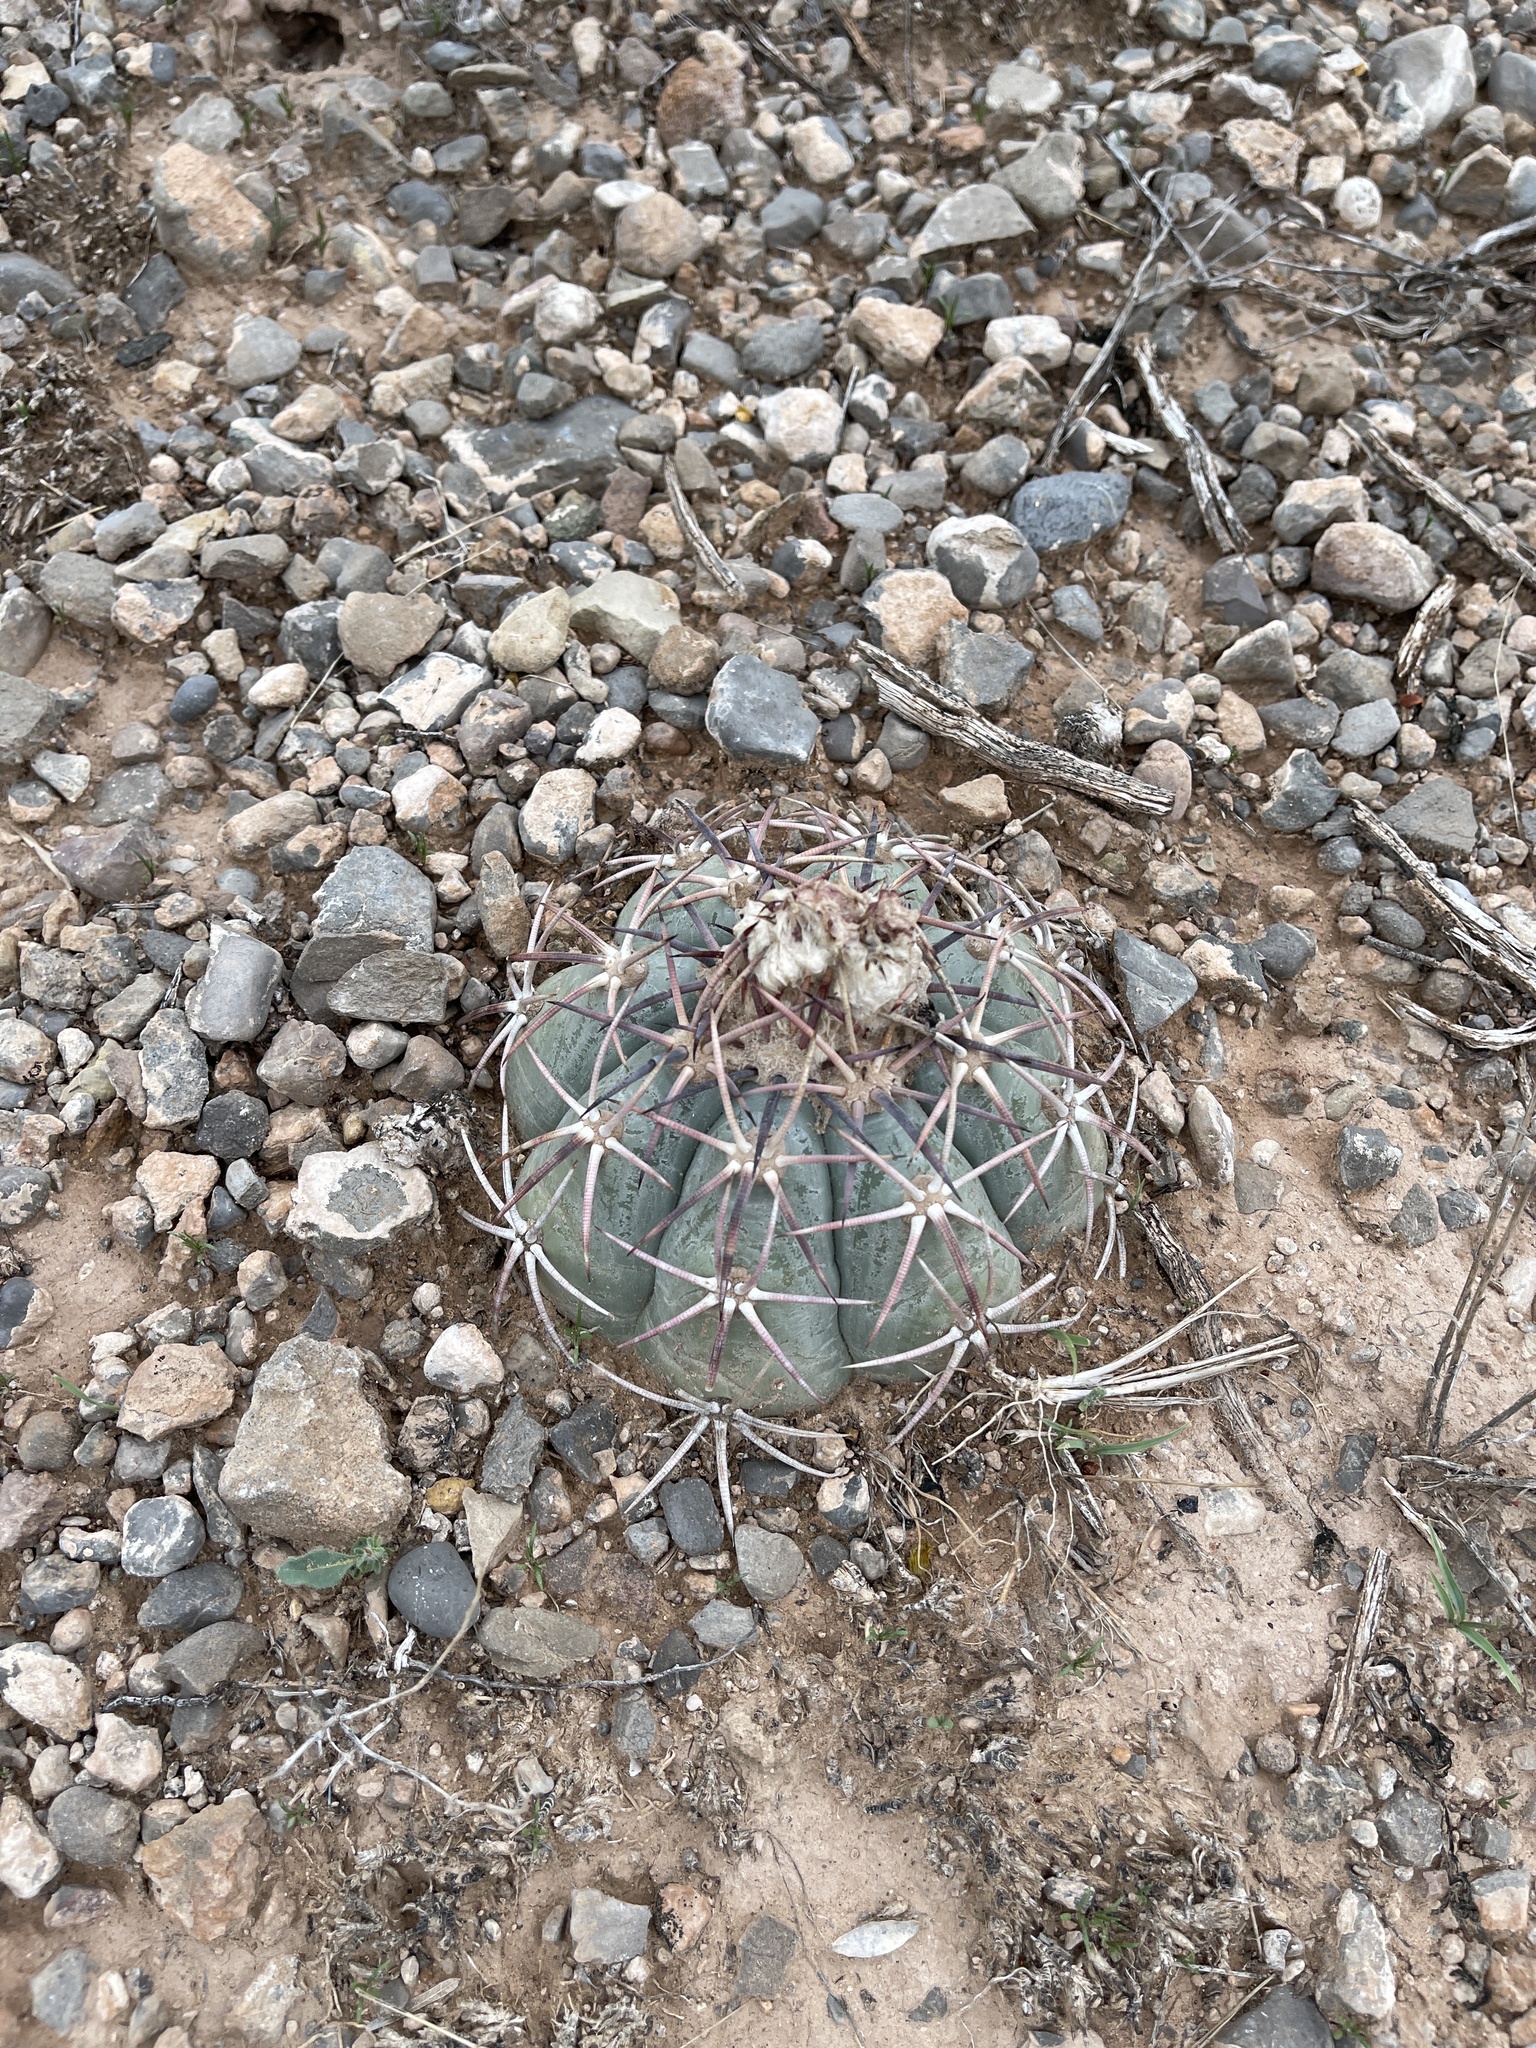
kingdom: Plantae
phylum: Tracheophyta
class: Magnoliopsida
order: Caryophyllales
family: Cactaceae
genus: Echinocactus
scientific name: Echinocactus horizonthalonius
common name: Devilshead
